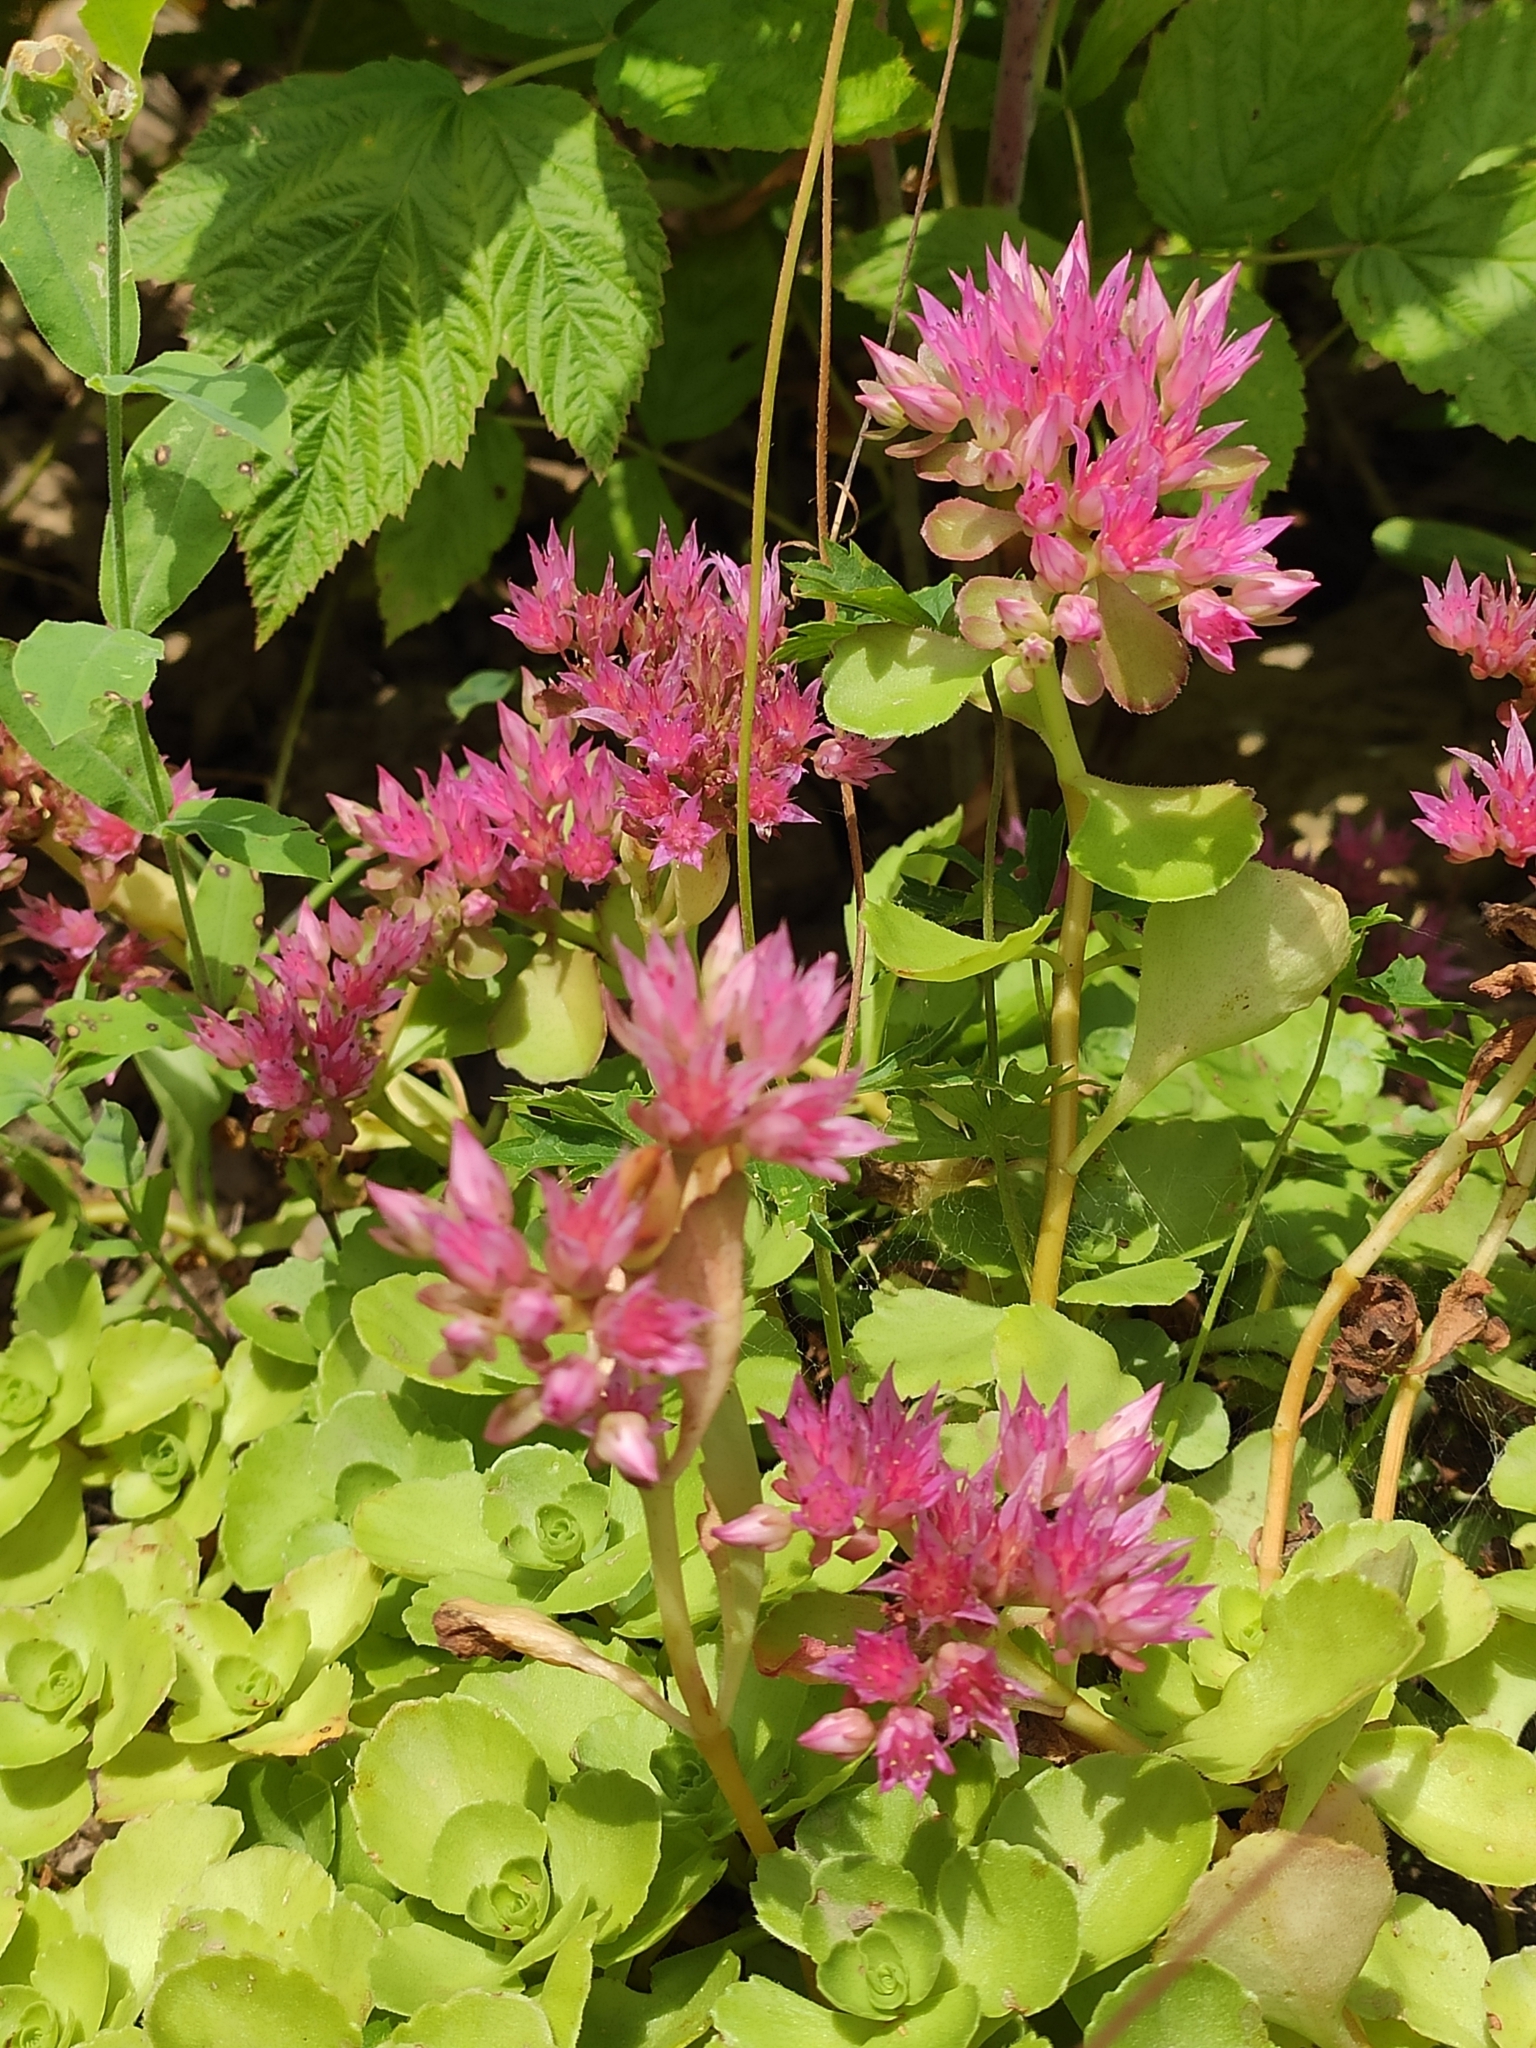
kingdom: Plantae
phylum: Tracheophyta
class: Magnoliopsida
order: Saxifragales
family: Crassulaceae
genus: Phedimus
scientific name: Phedimus spurius
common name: Caucasian stonecrop
